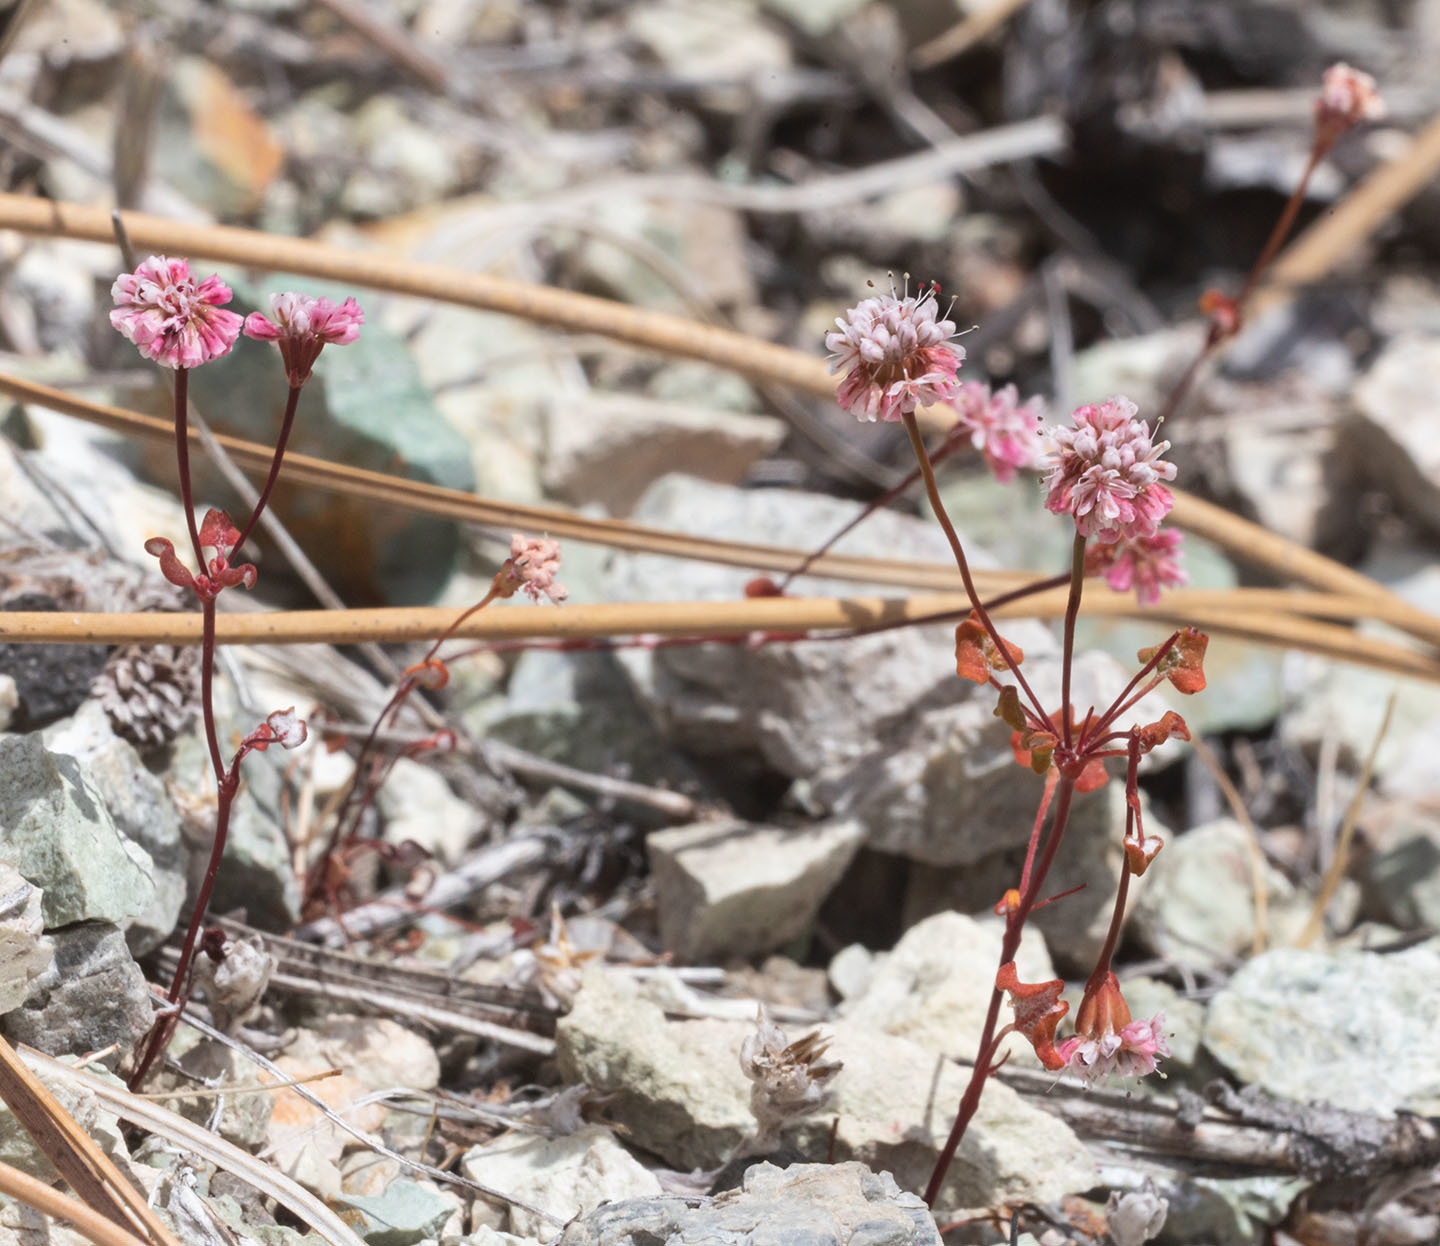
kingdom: Plantae
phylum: Tracheophyta
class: Magnoliopsida
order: Caryophyllales
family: Polygonaceae
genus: Eriogonum
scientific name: Eriogonum nortonii
